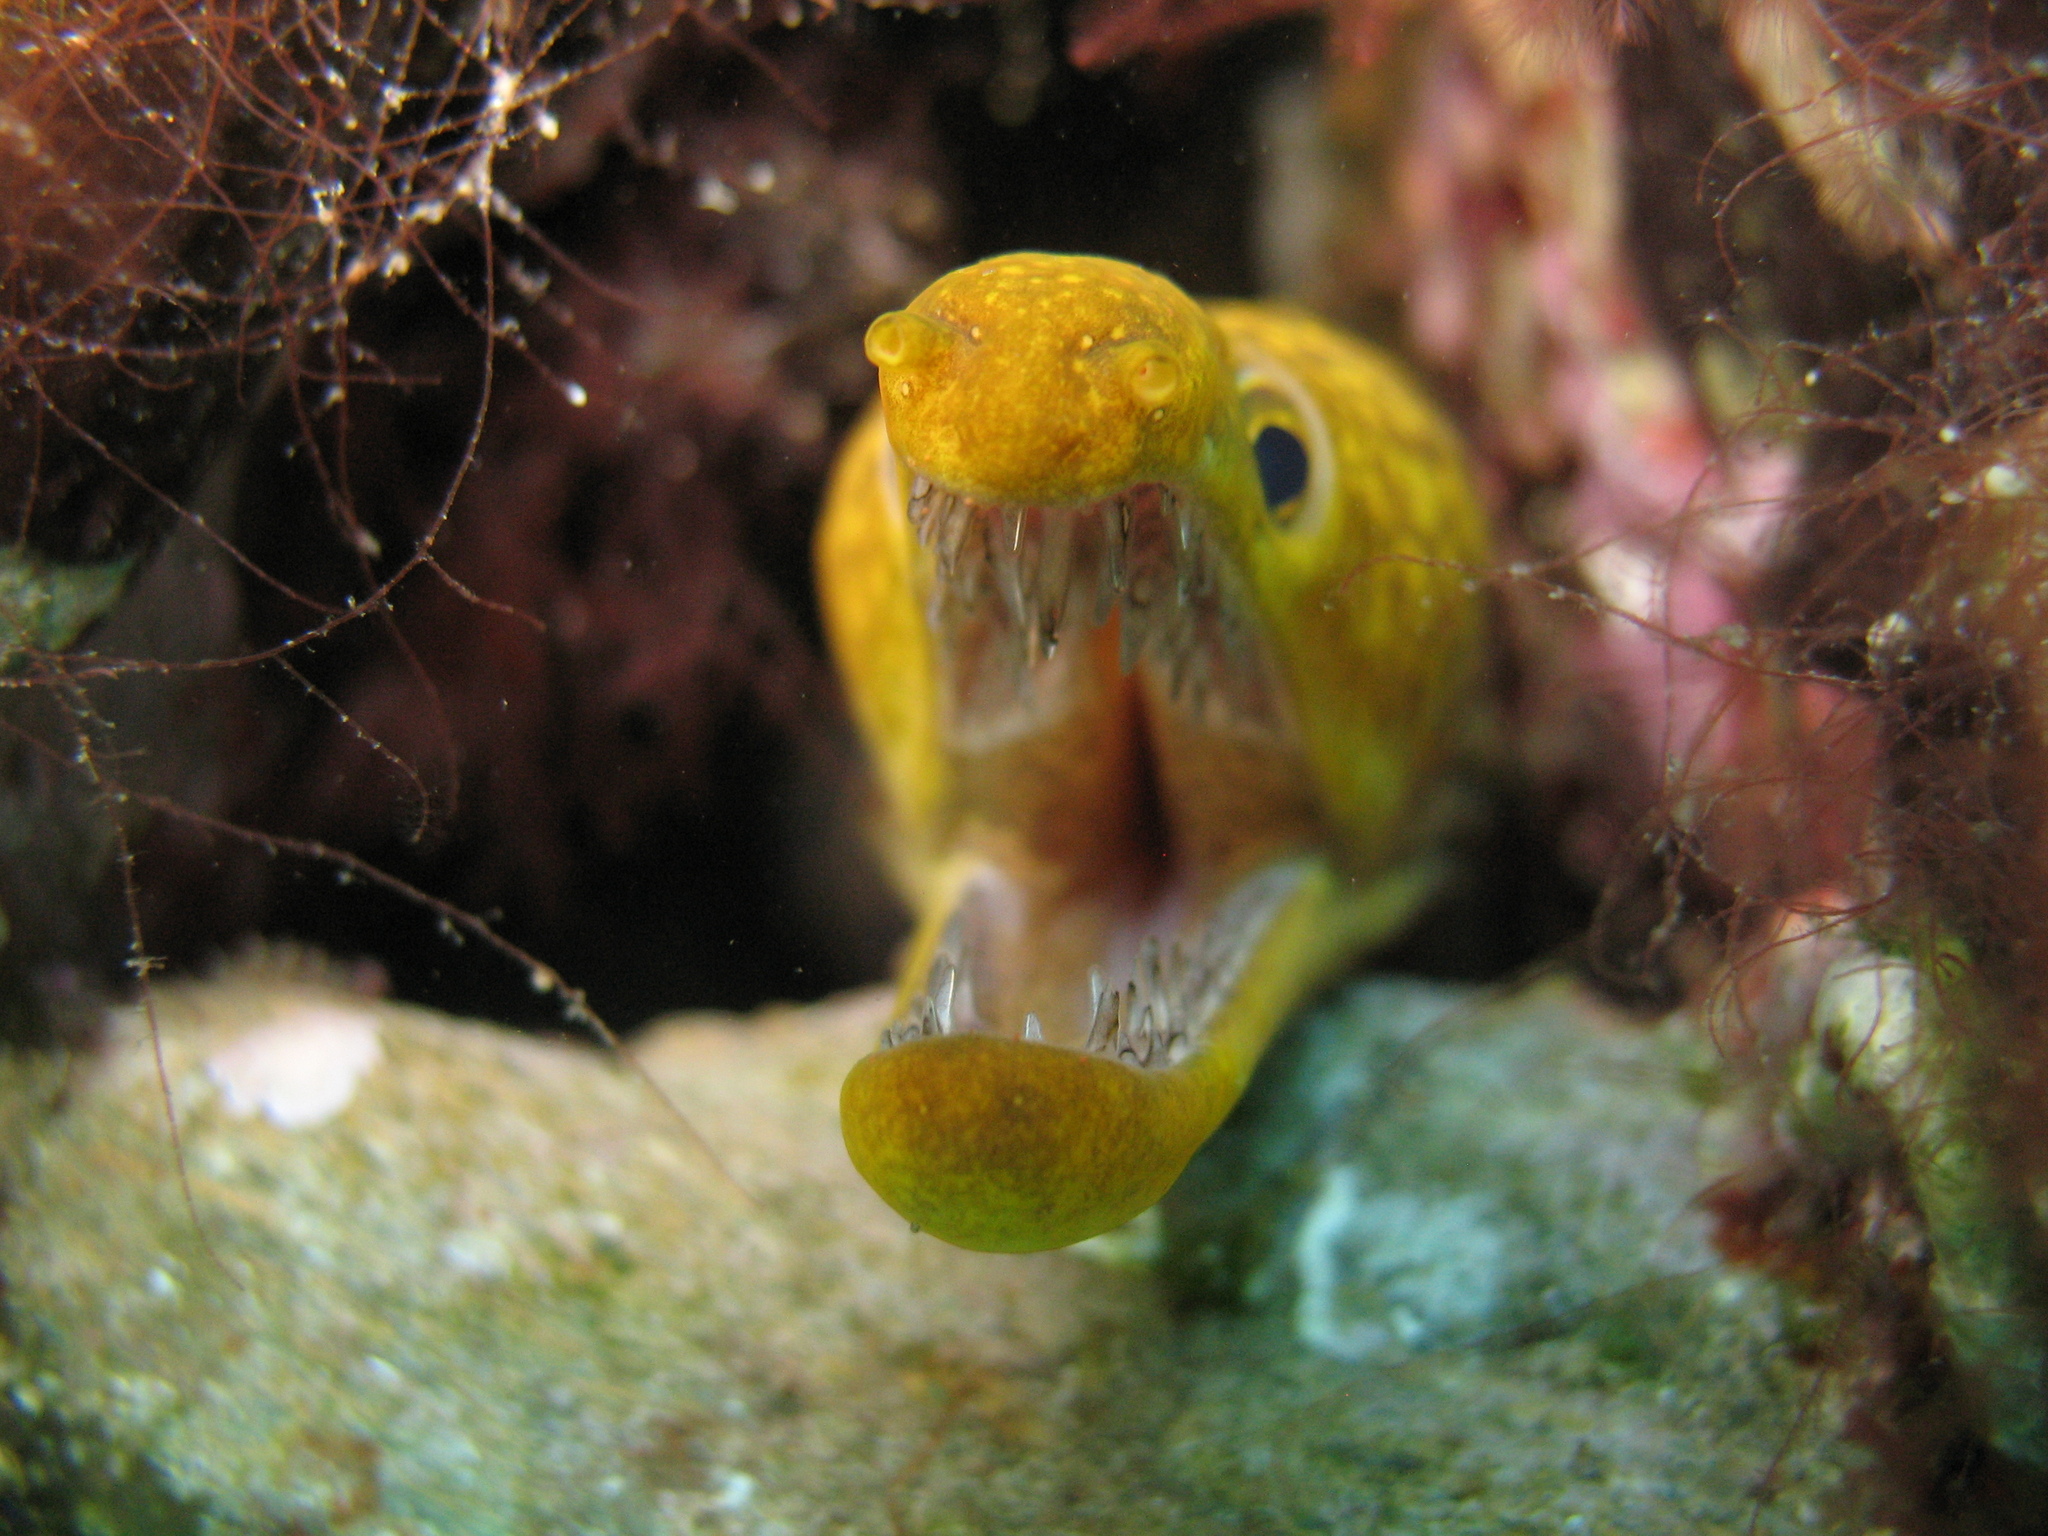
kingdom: Animalia
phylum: Chordata
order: Anguilliformes
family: Muraenidae
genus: Enchelycore
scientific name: Enchelycore anatina
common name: Fangtooth moray
